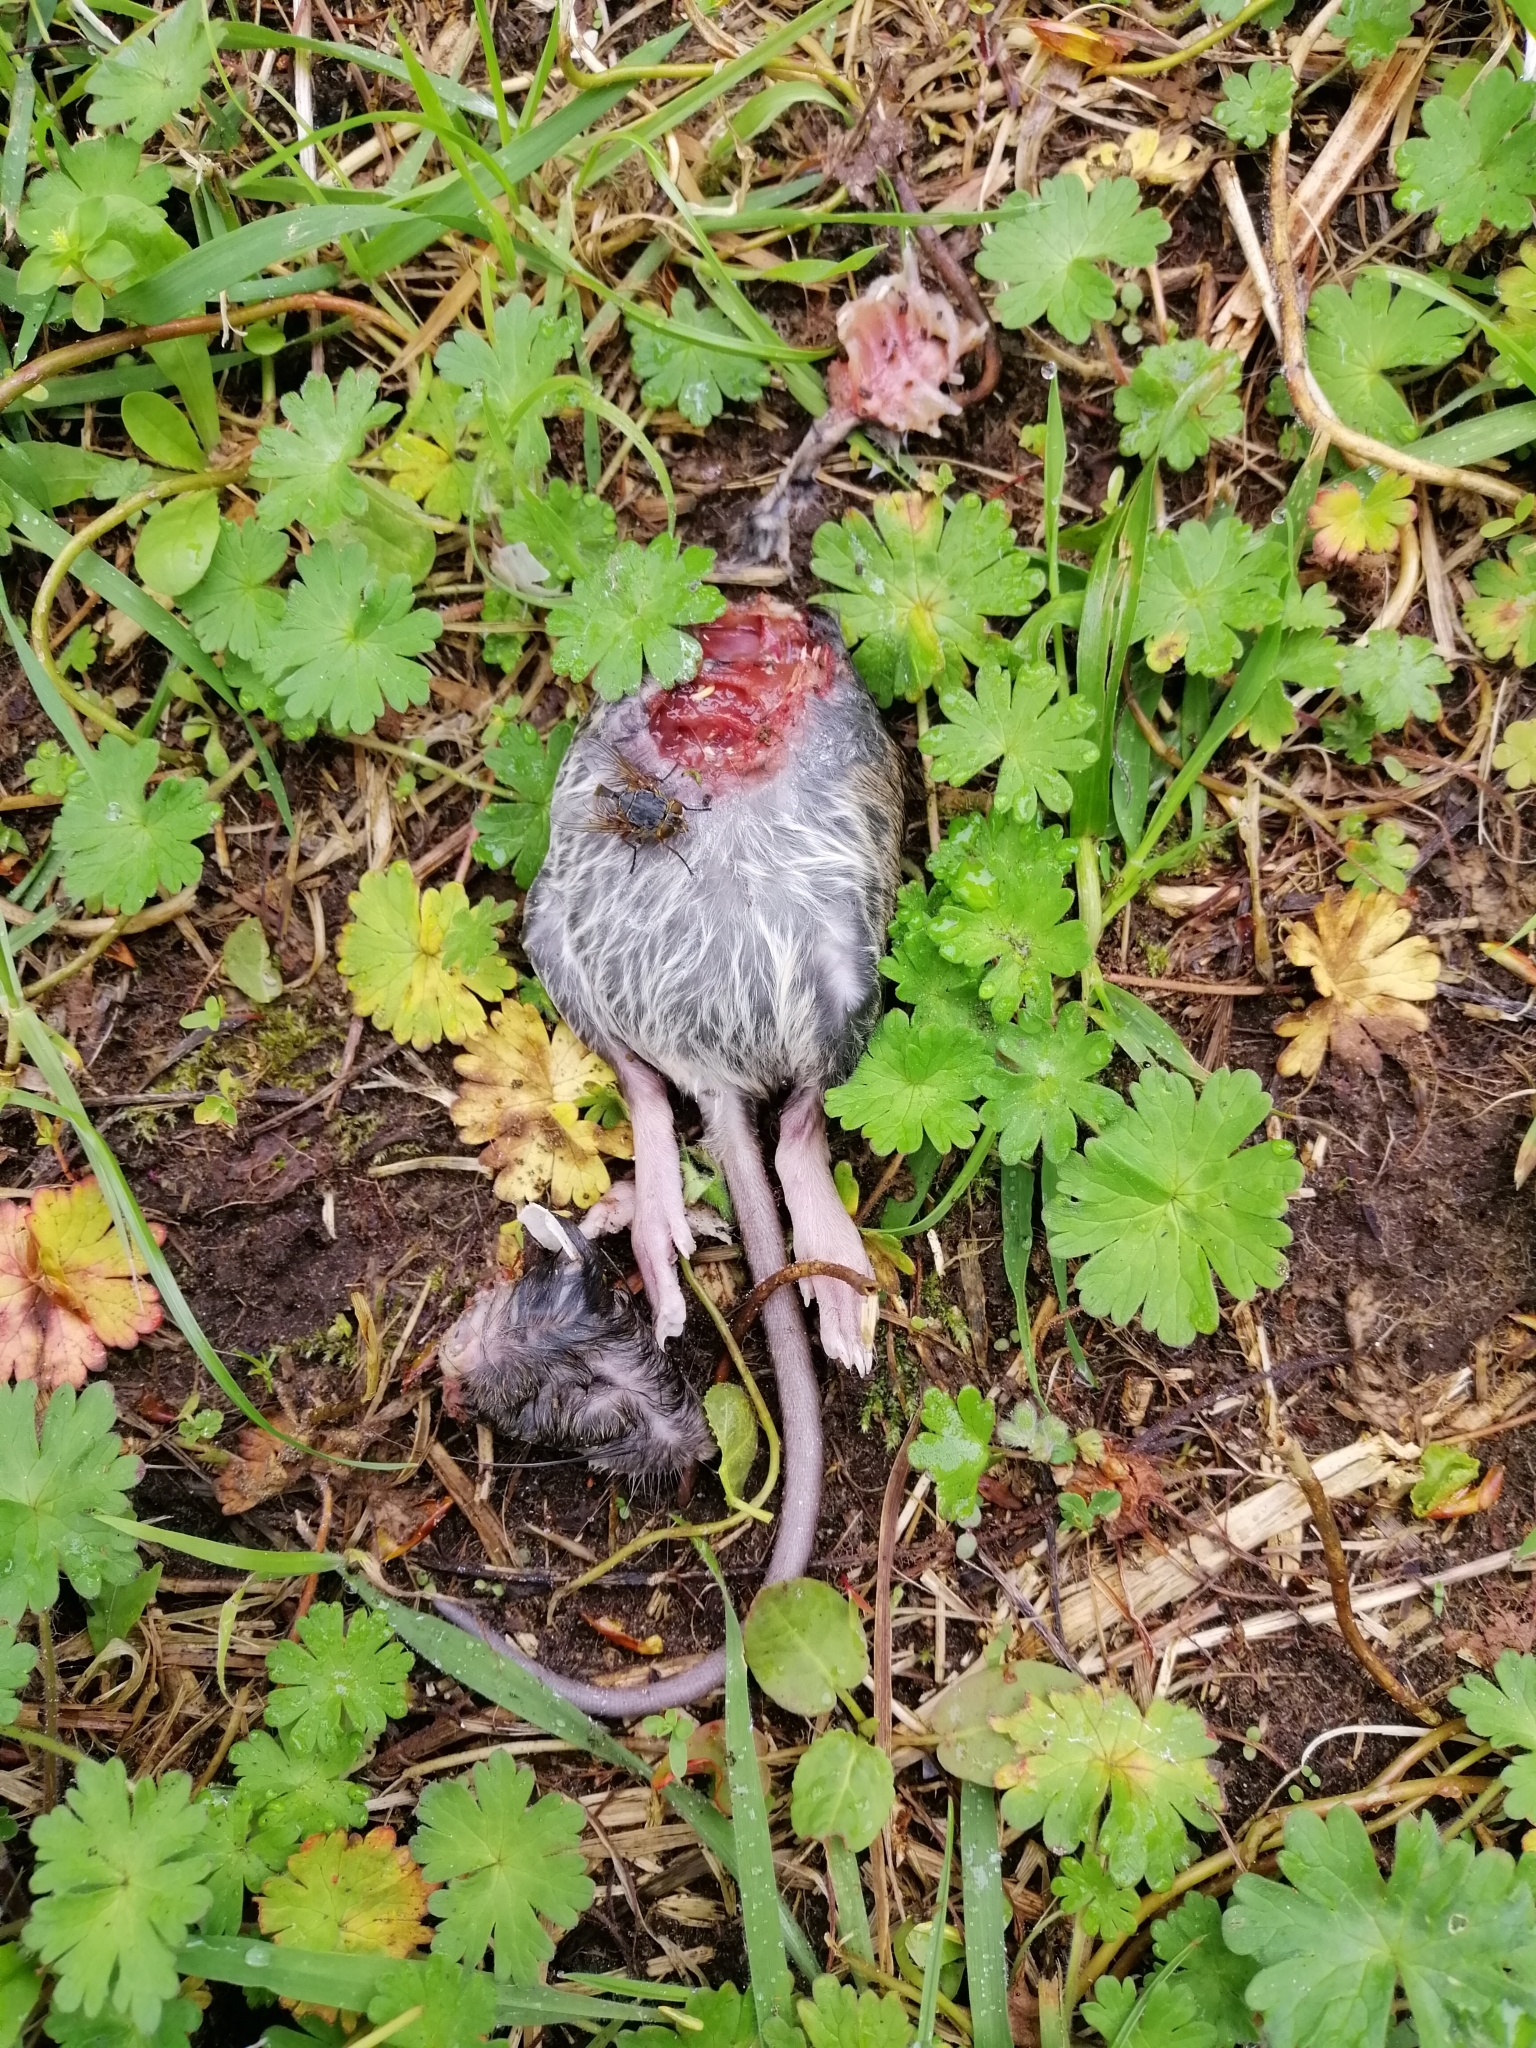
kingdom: Animalia
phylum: Chordata
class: Mammalia
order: Rodentia
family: Muridae
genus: Rattus
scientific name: Rattus rattus
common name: Black rat
